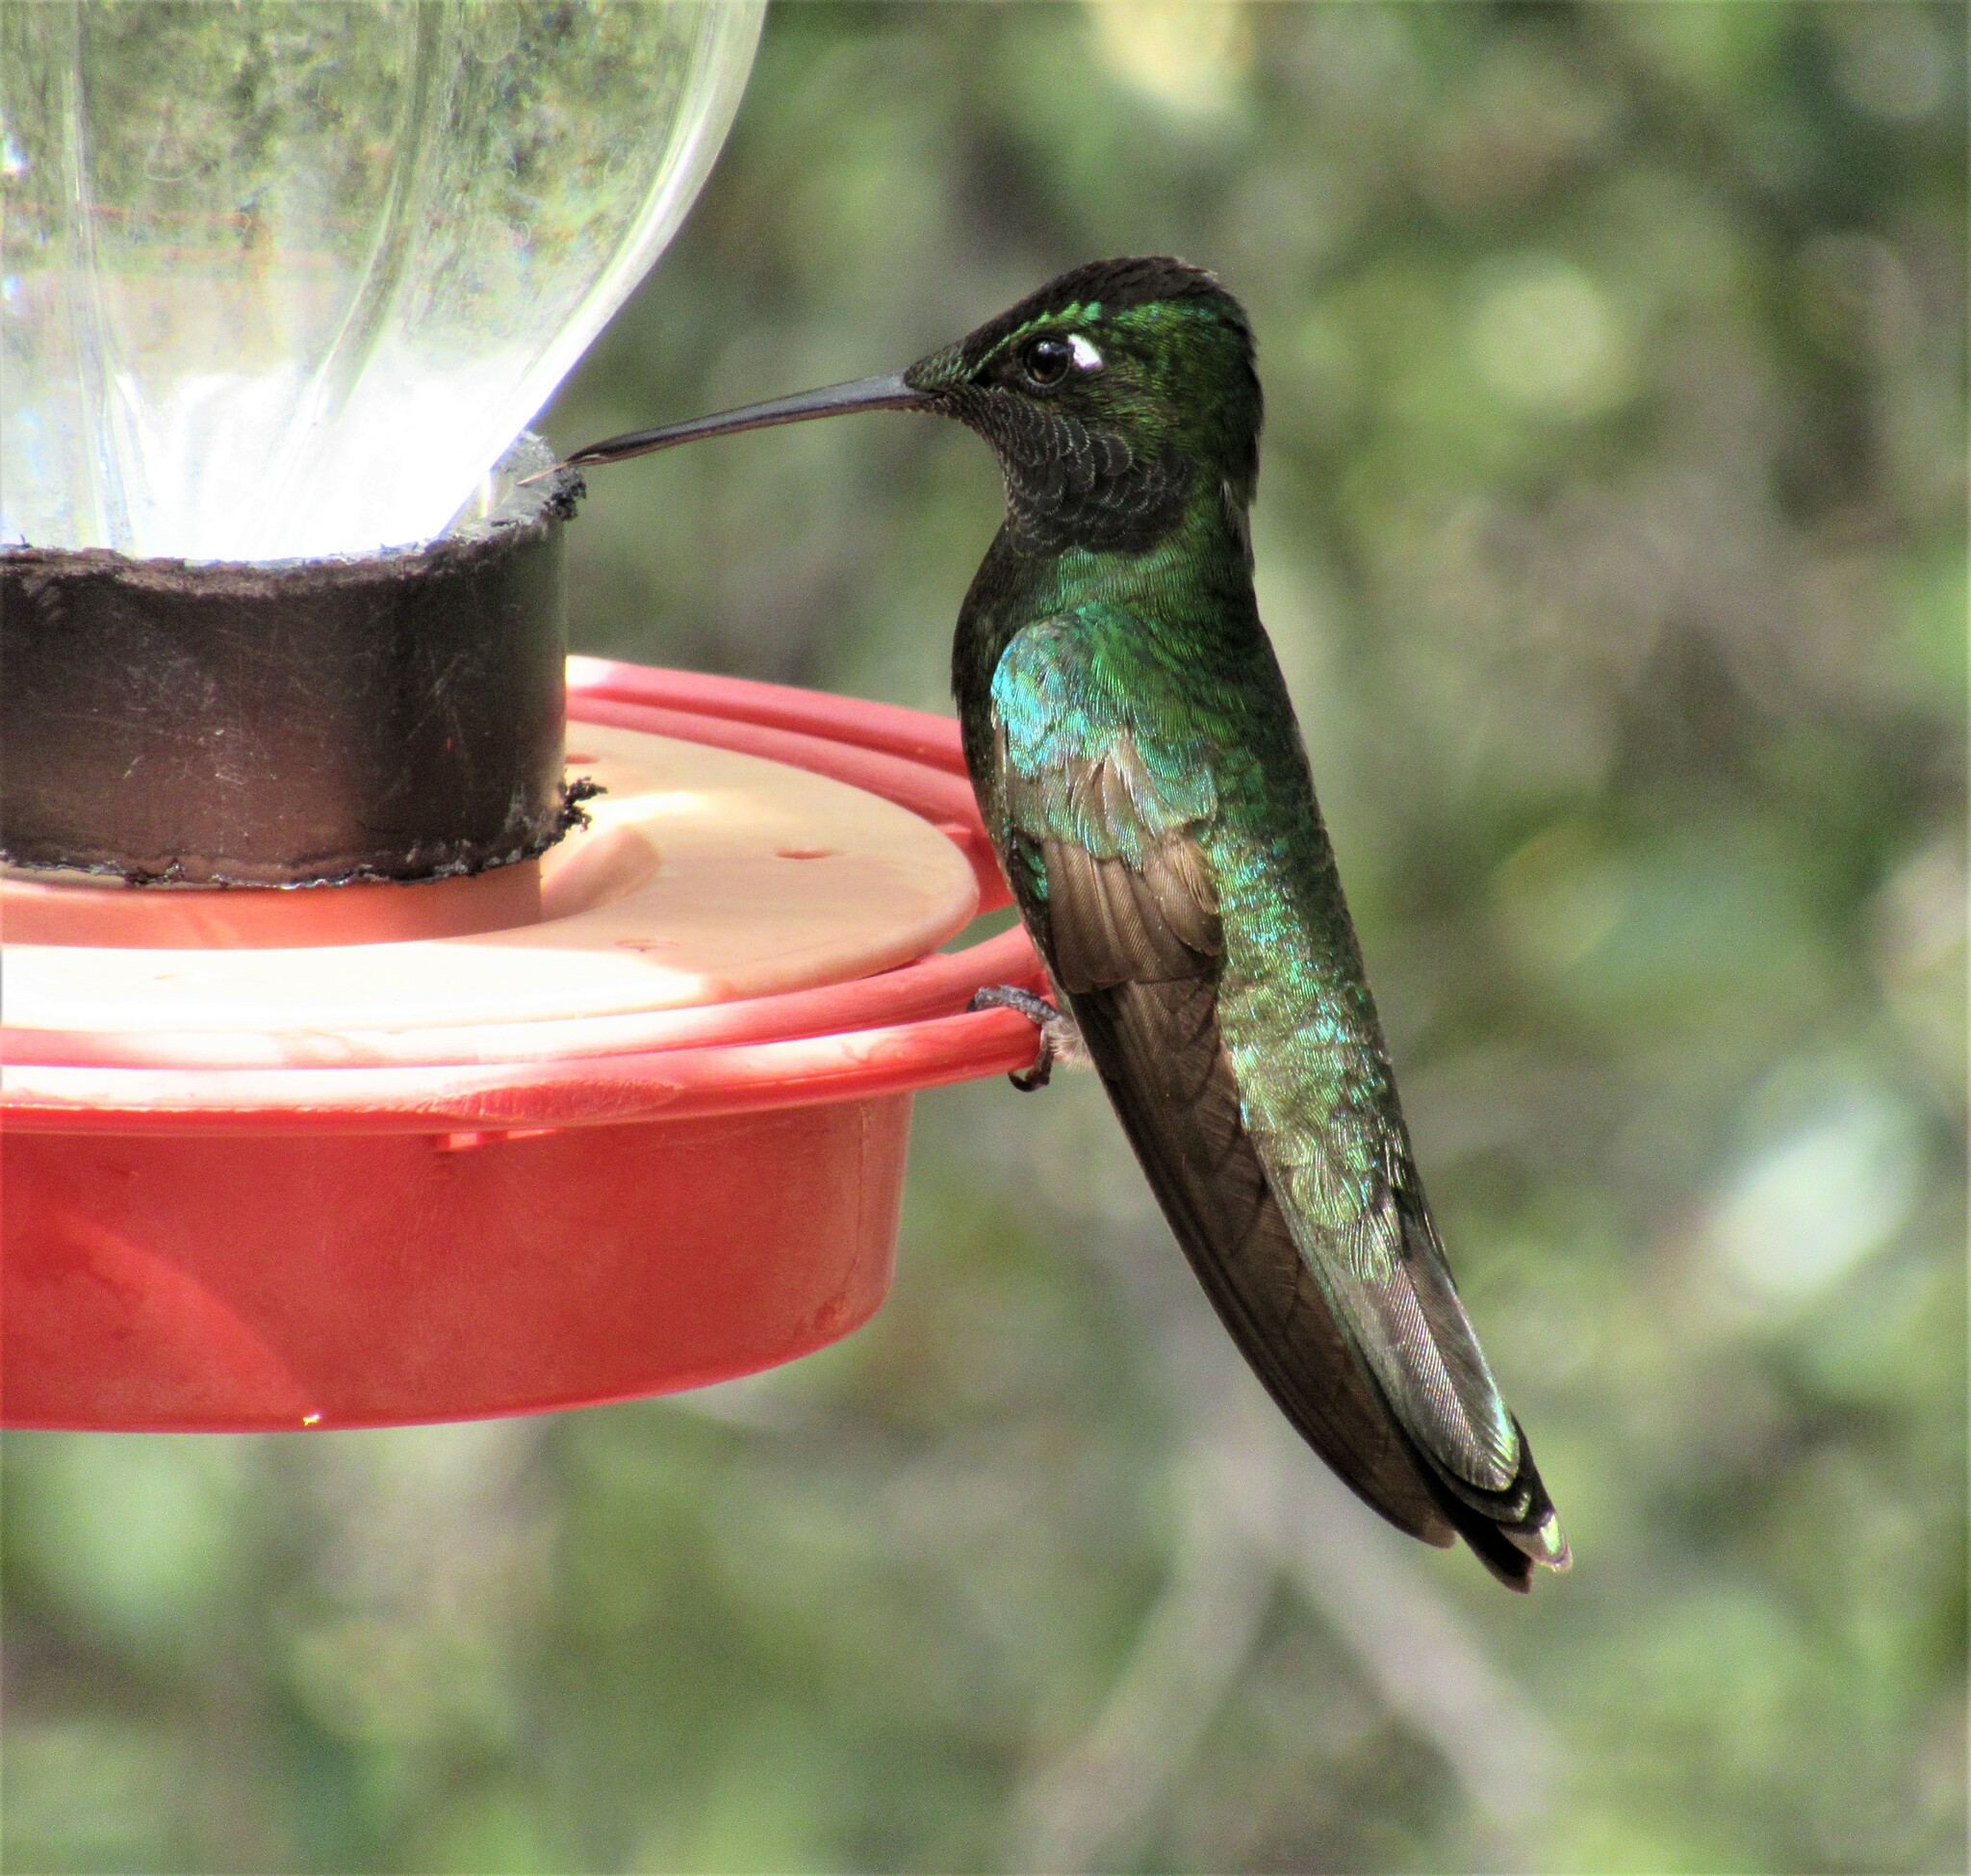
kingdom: Animalia
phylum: Chordata
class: Aves
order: Apodiformes
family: Trochilidae
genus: Eugenes
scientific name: Eugenes fulgens
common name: Magnificent hummingbird
